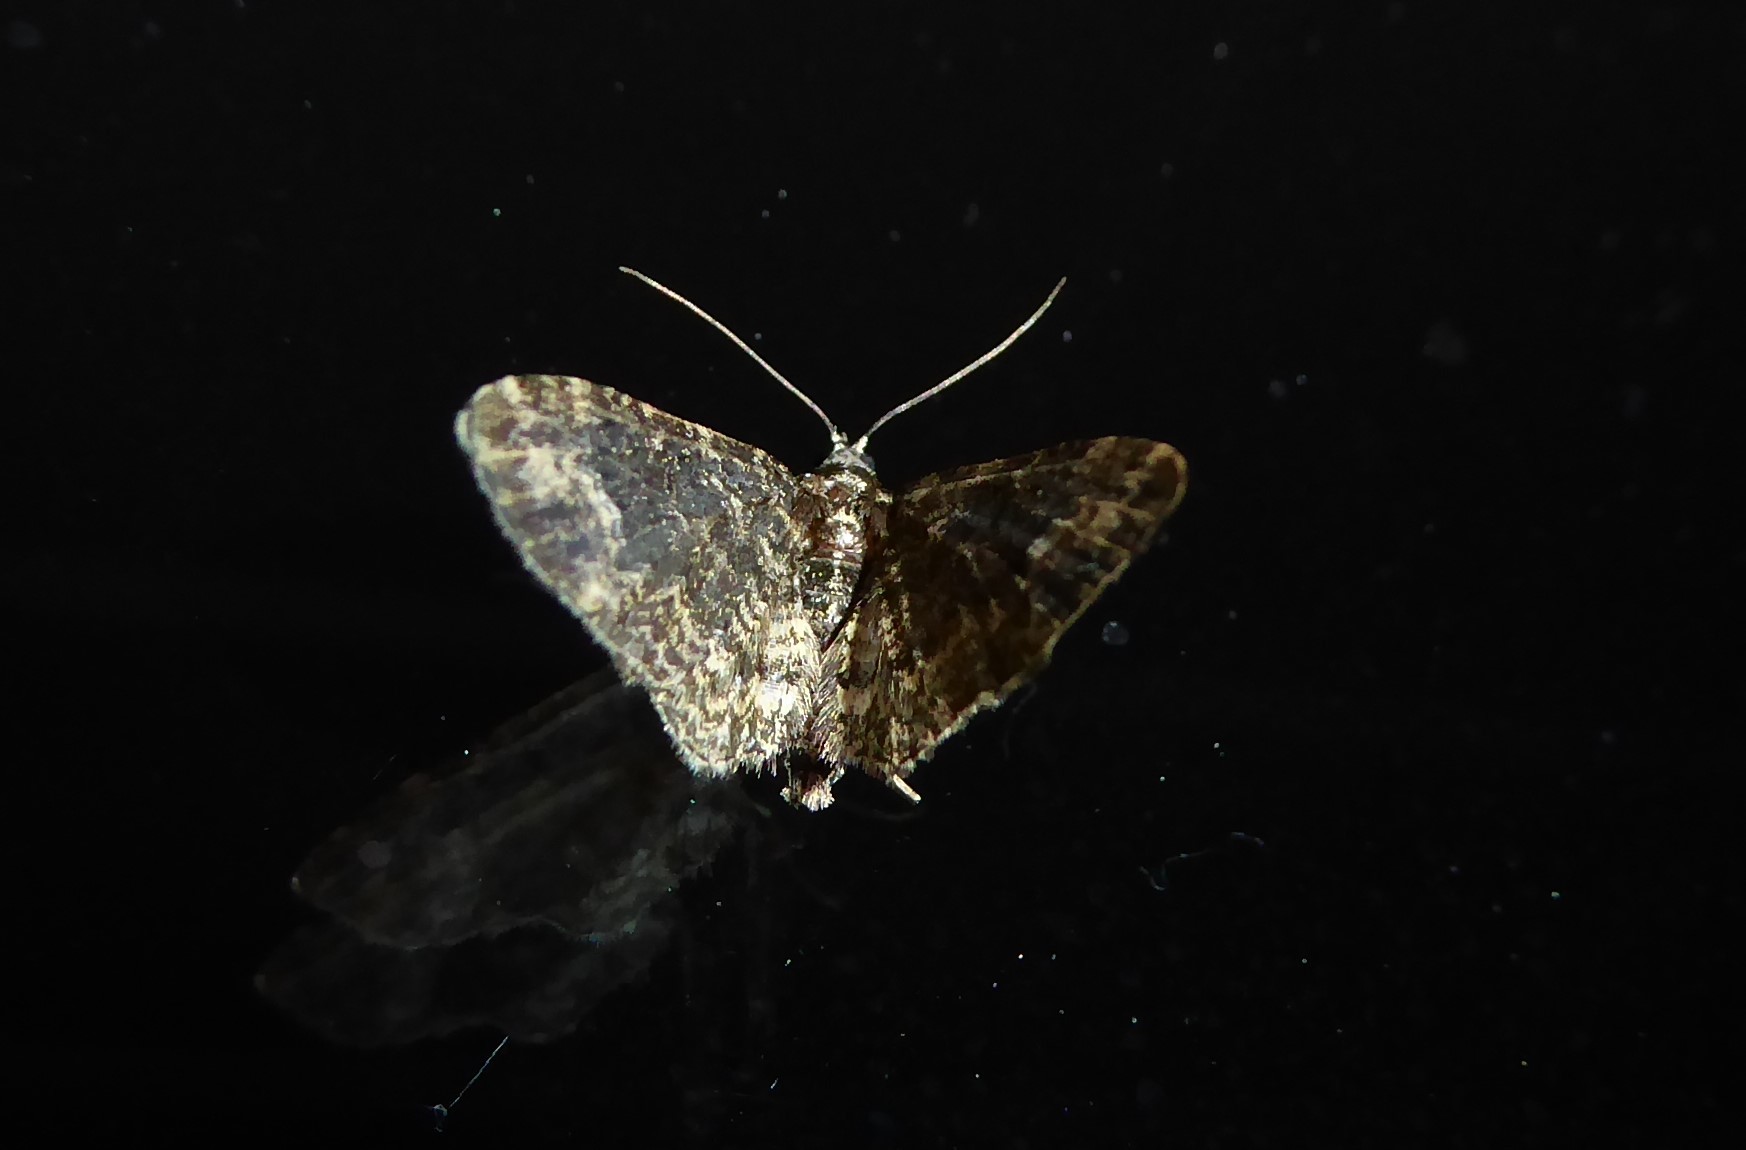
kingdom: Animalia
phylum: Arthropoda
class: Insecta
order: Lepidoptera
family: Geometridae
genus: Pasiphilodes
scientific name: Pasiphilodes testulata
